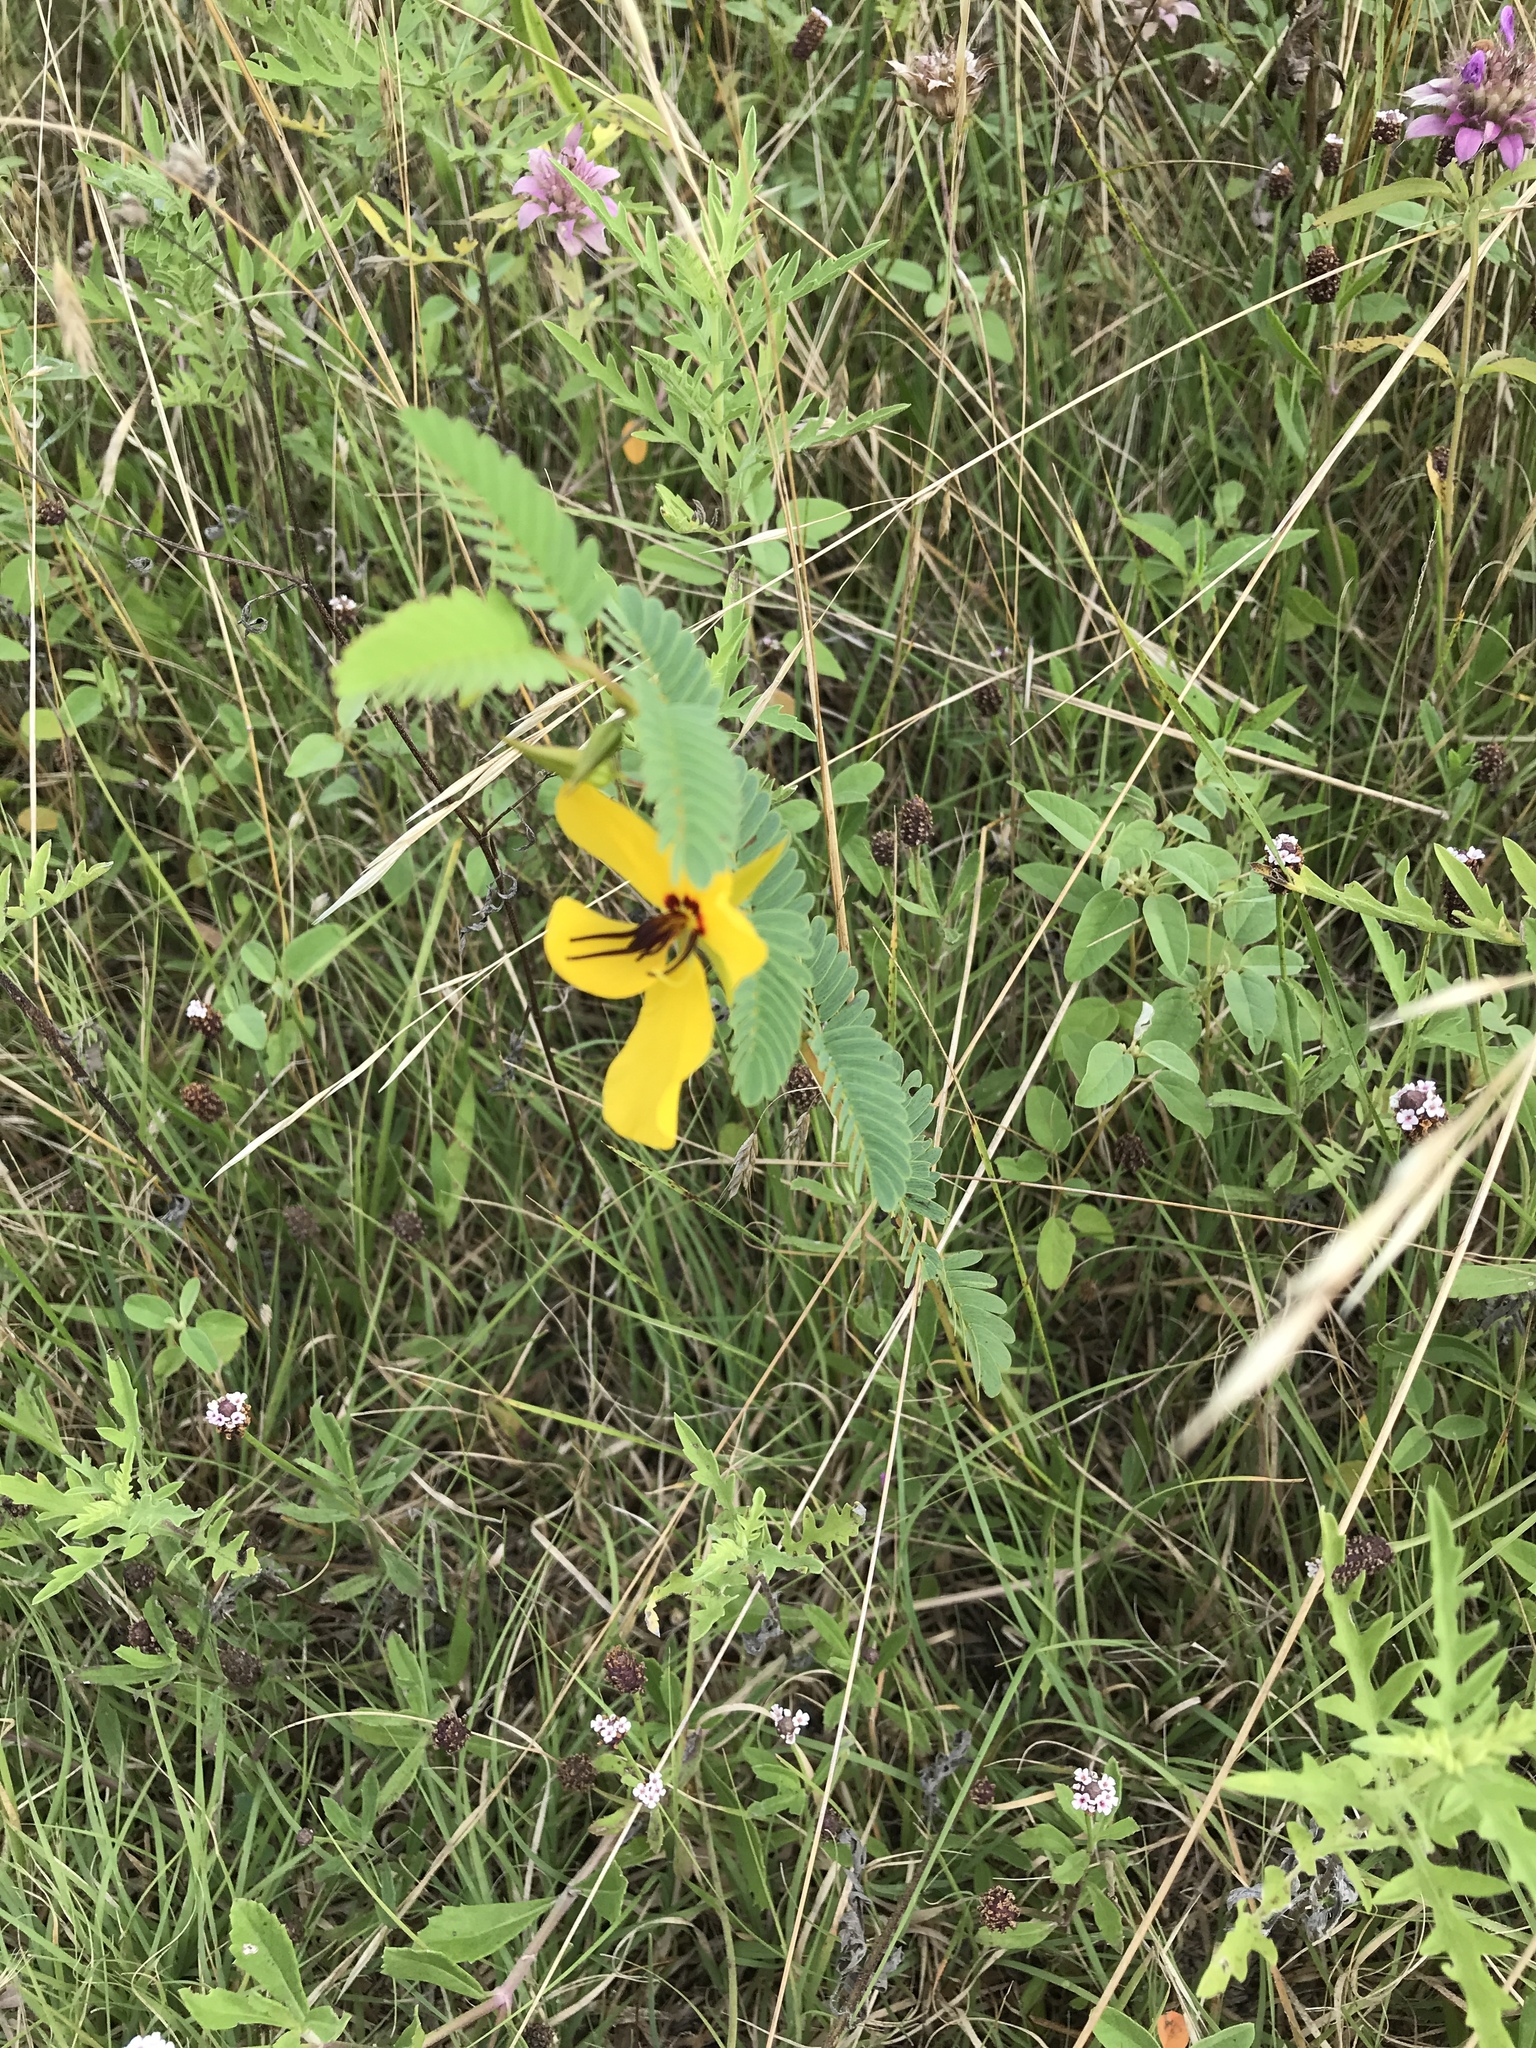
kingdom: Plantae
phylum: Tracheophyta
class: Magnoliopsida
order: Fabales
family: Fabaceae
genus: Chamaecrista
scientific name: Chamaecrista fasciculata
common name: Golden cassia
